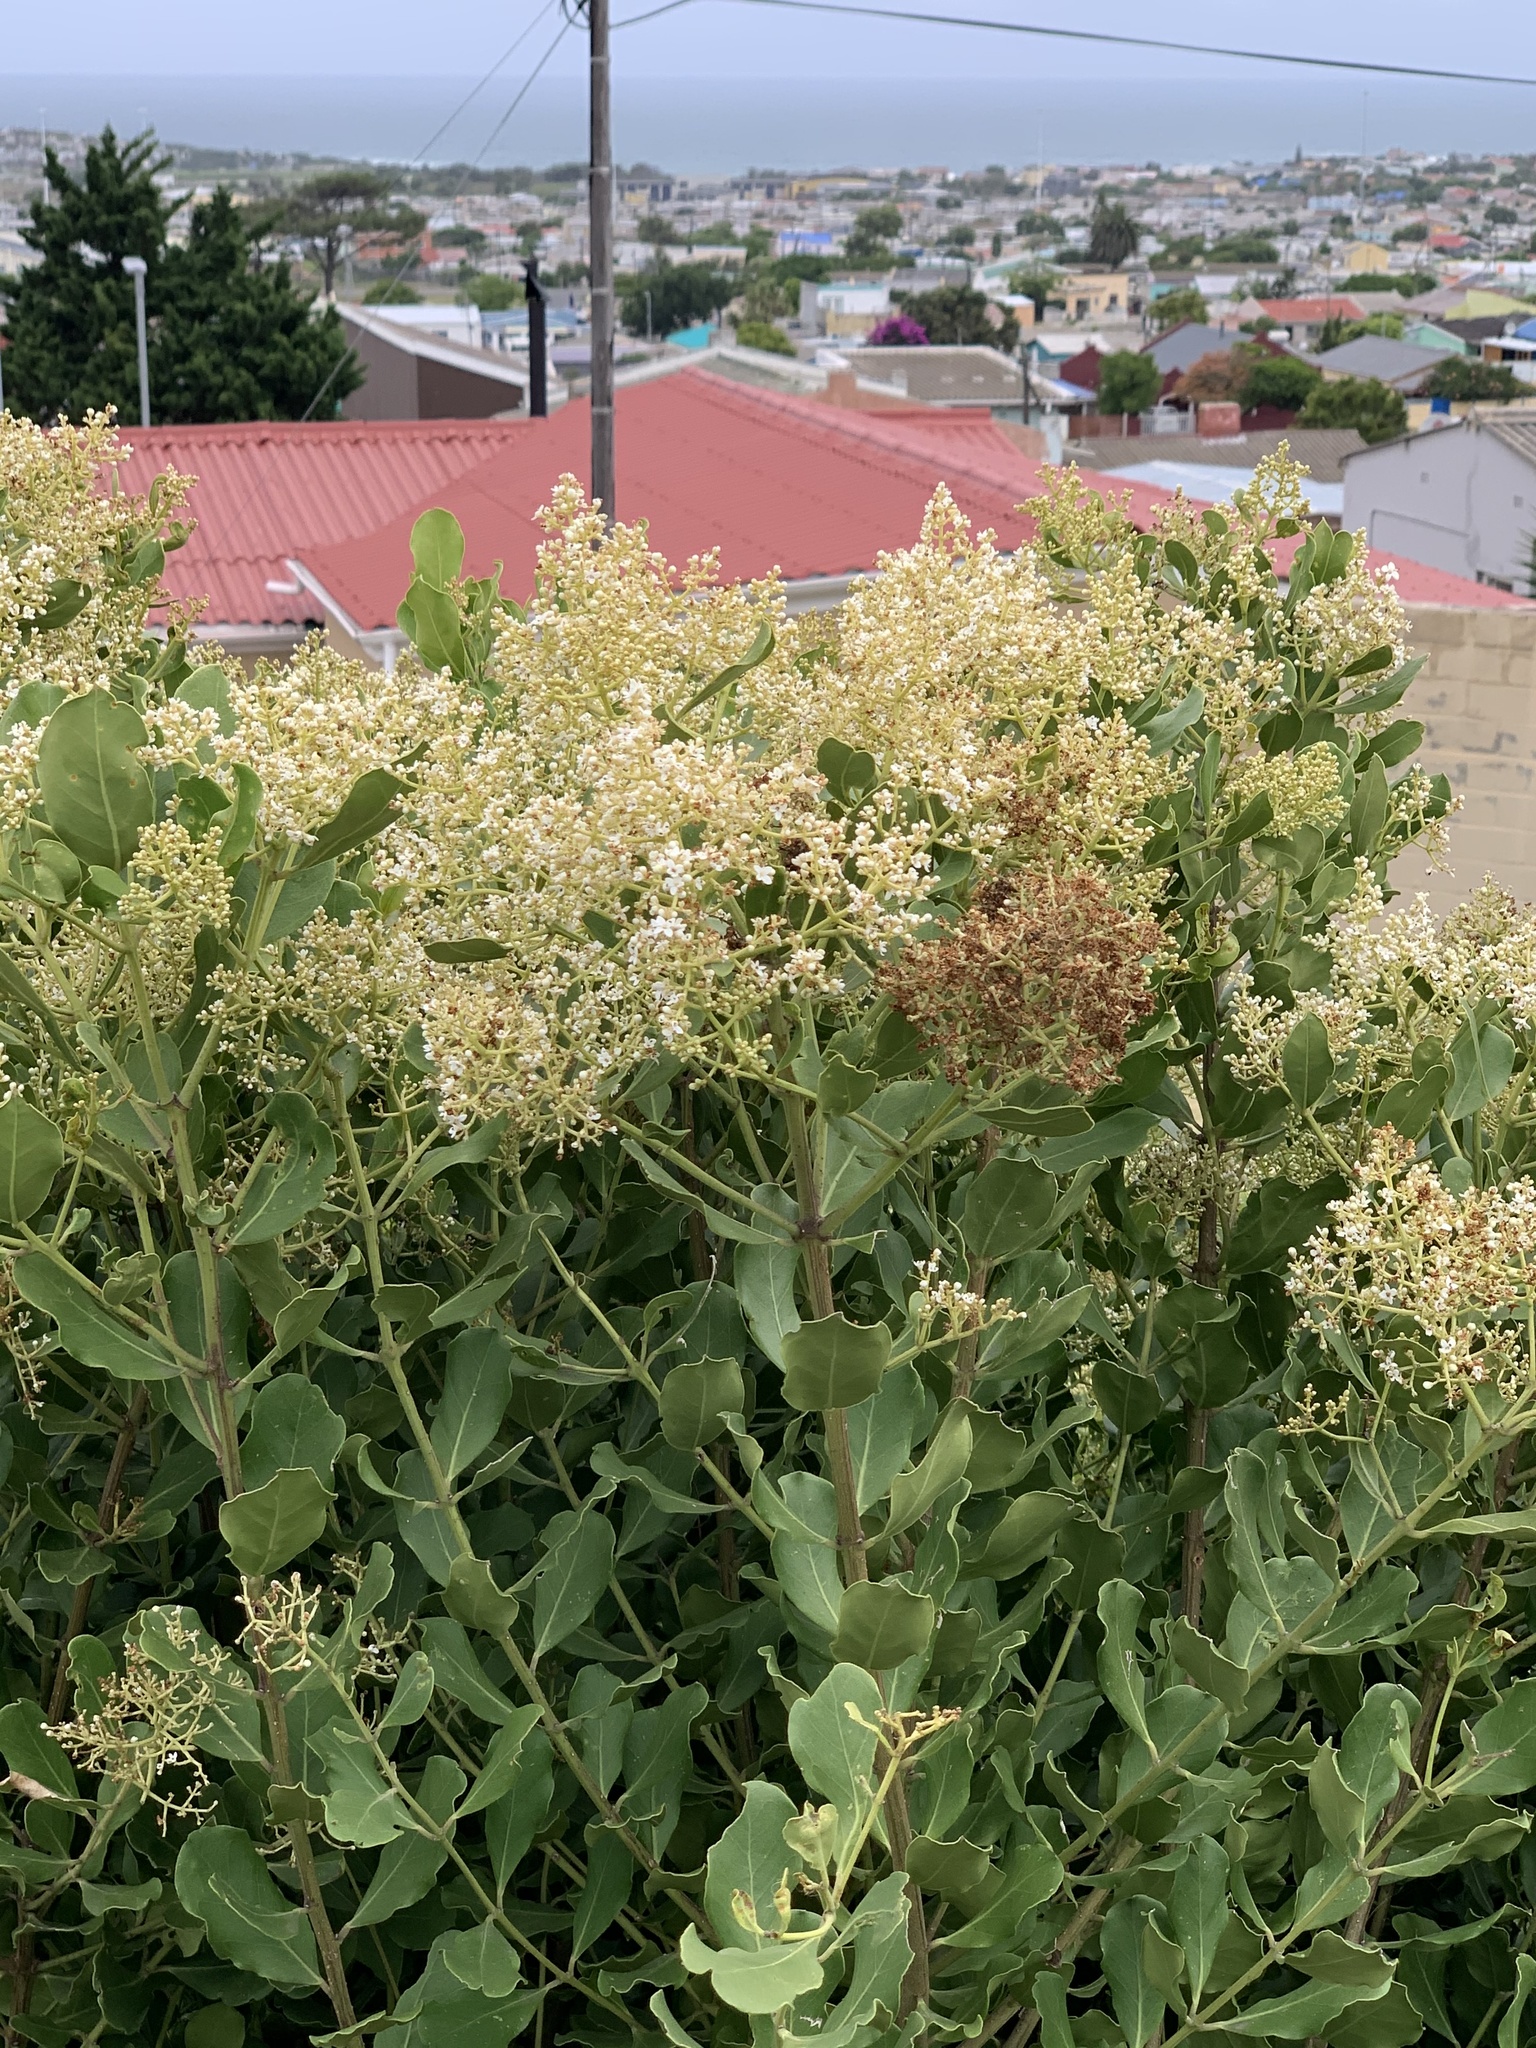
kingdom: Plantae
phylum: Tracheophyta
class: Magnoliopsida
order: Lamiales
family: Oleaceae
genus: Olea
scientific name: Olea capensis
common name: Black ironwood
